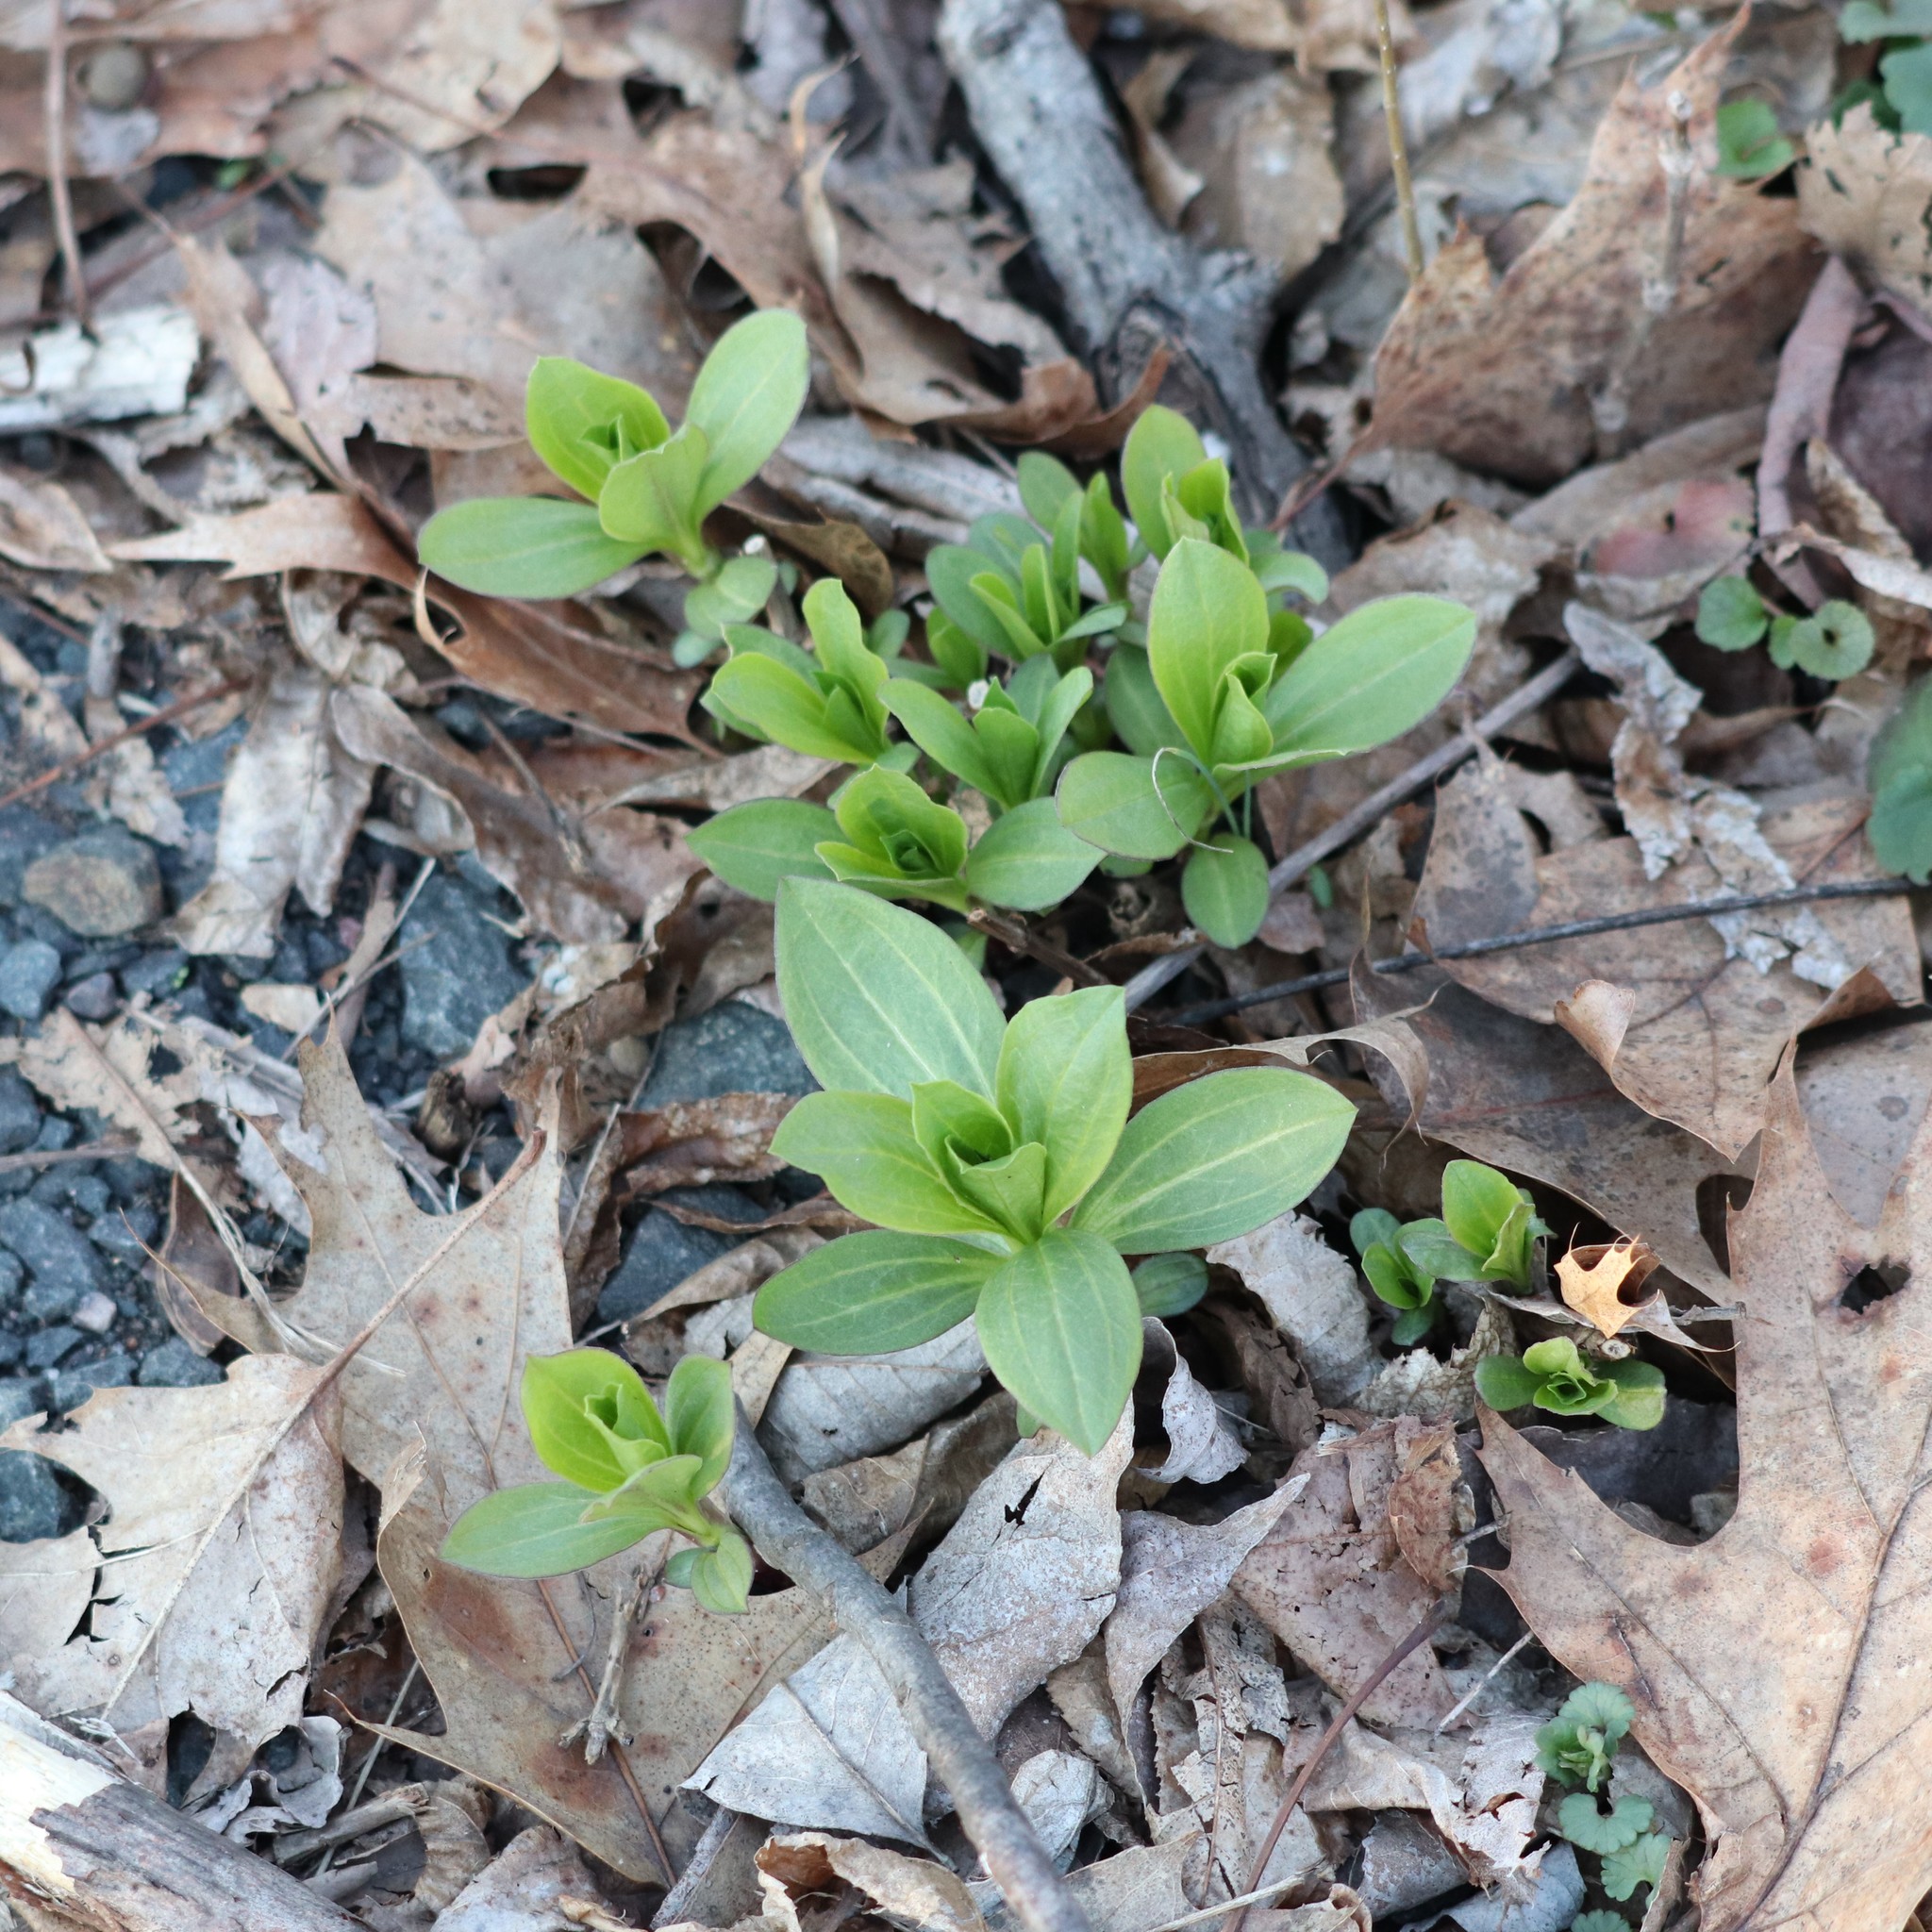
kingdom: Plantae
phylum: Tracheophyta
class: Magnoliopsida
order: Caryophyllales
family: Caryophyllaceae
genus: Saponaria
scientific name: Saponaria officinalis
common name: Soapwort
